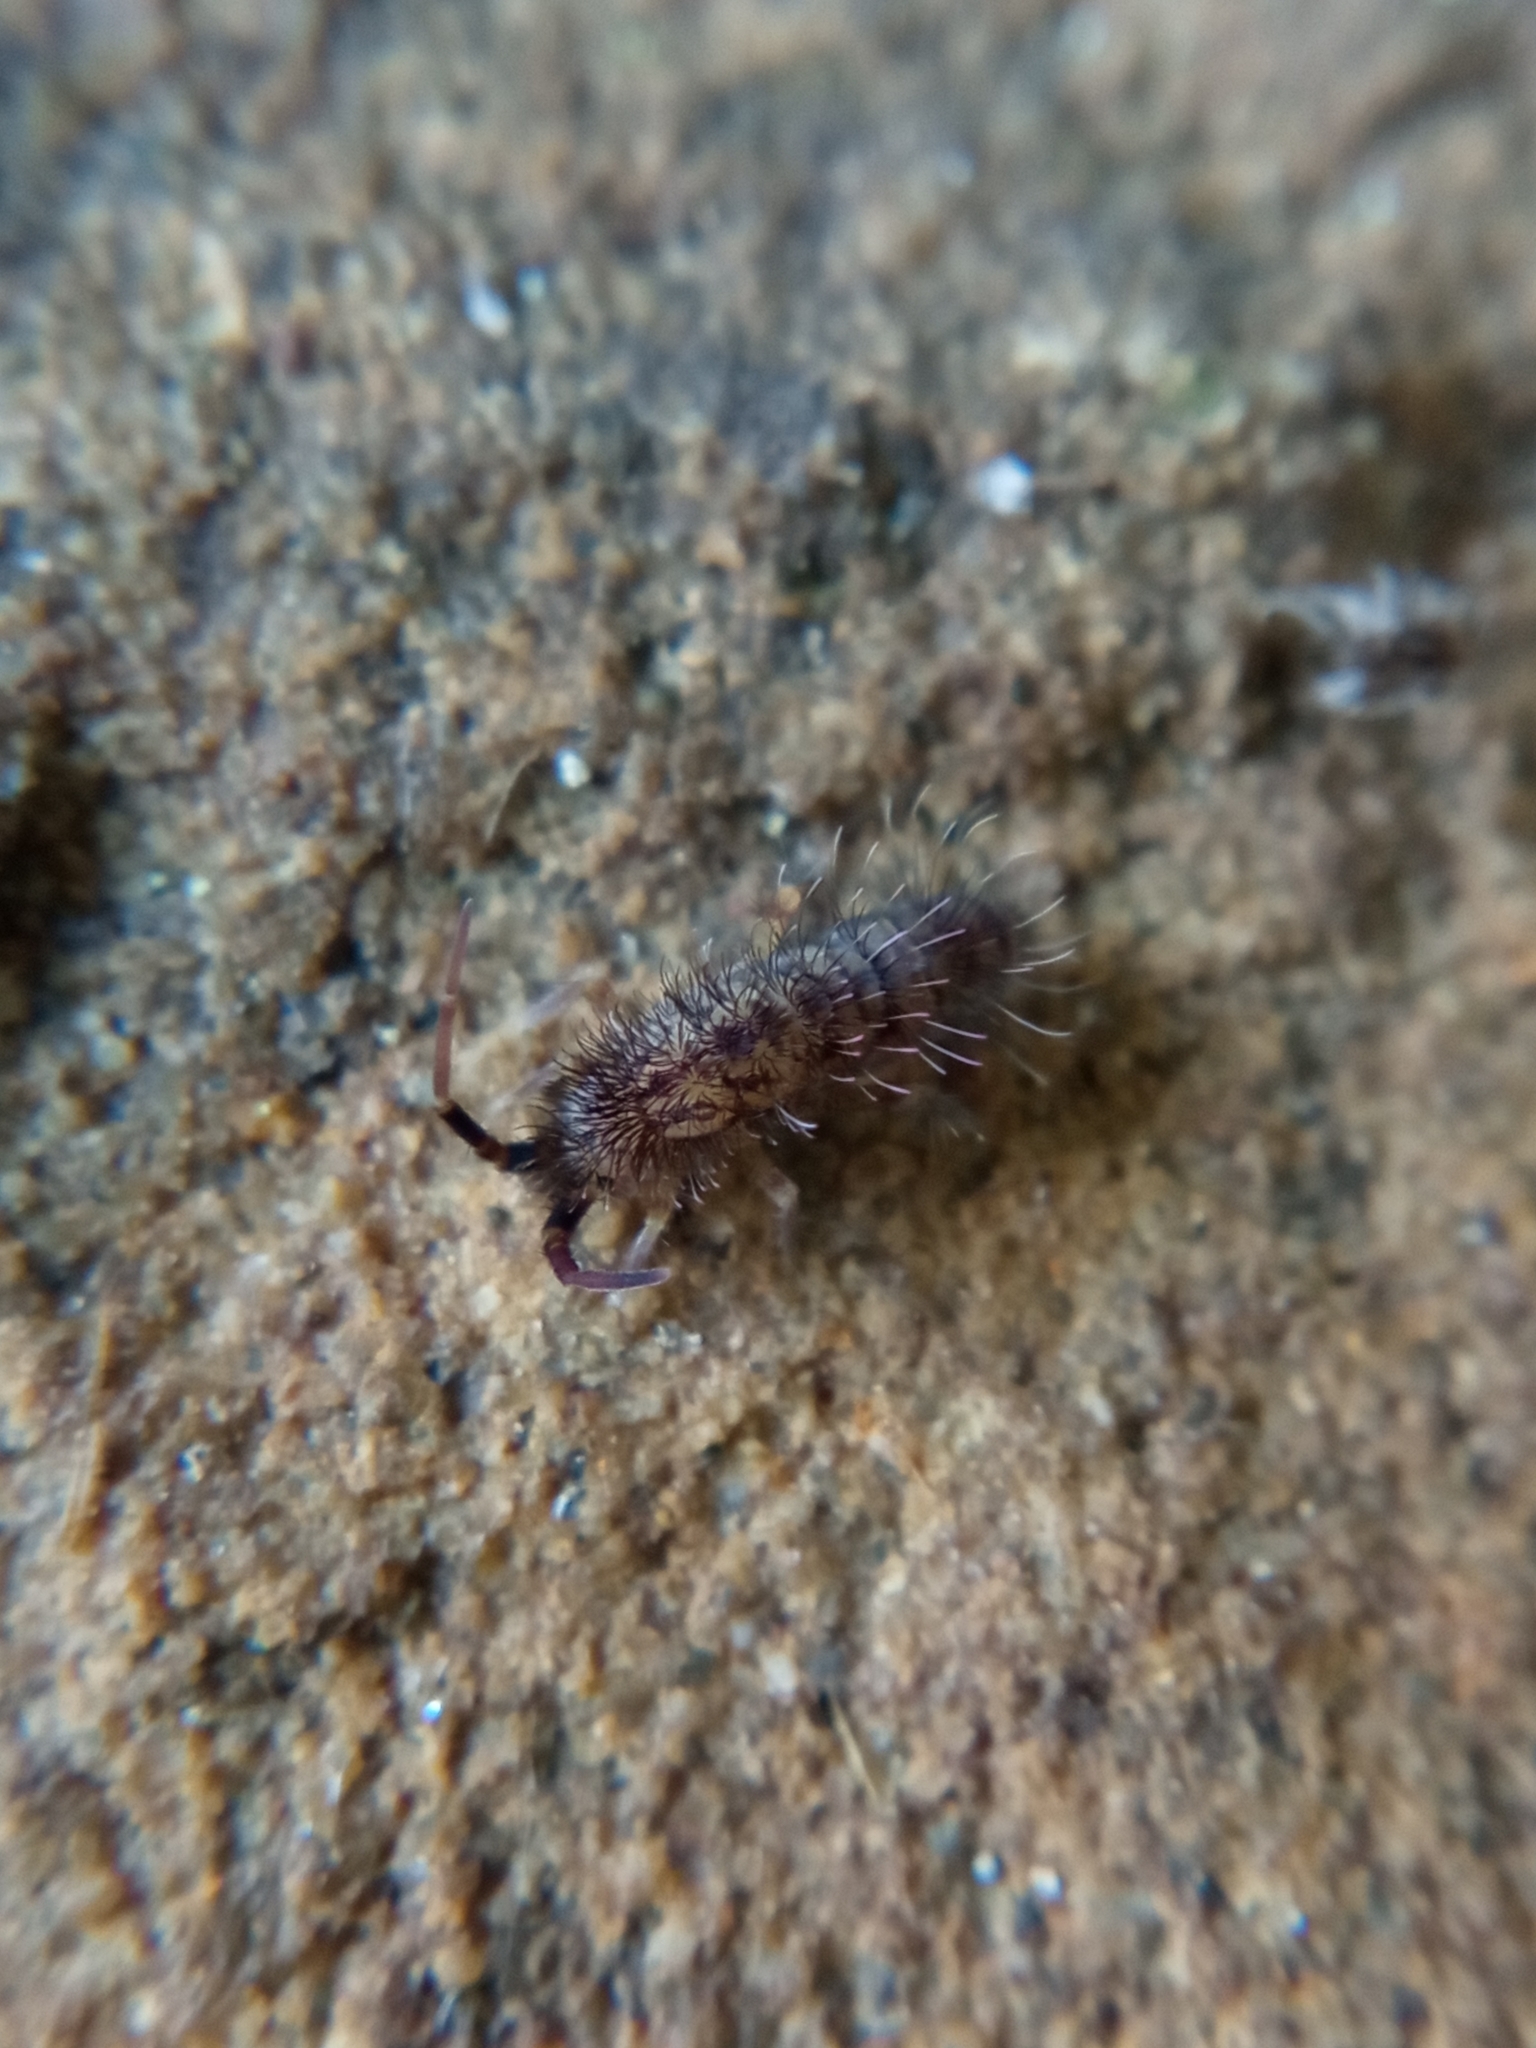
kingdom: Animalia
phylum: Arthropoda
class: Collembola
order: Entomobryomorpha
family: Orchesellidae
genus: Orchesella
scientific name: Orchesella villosa
